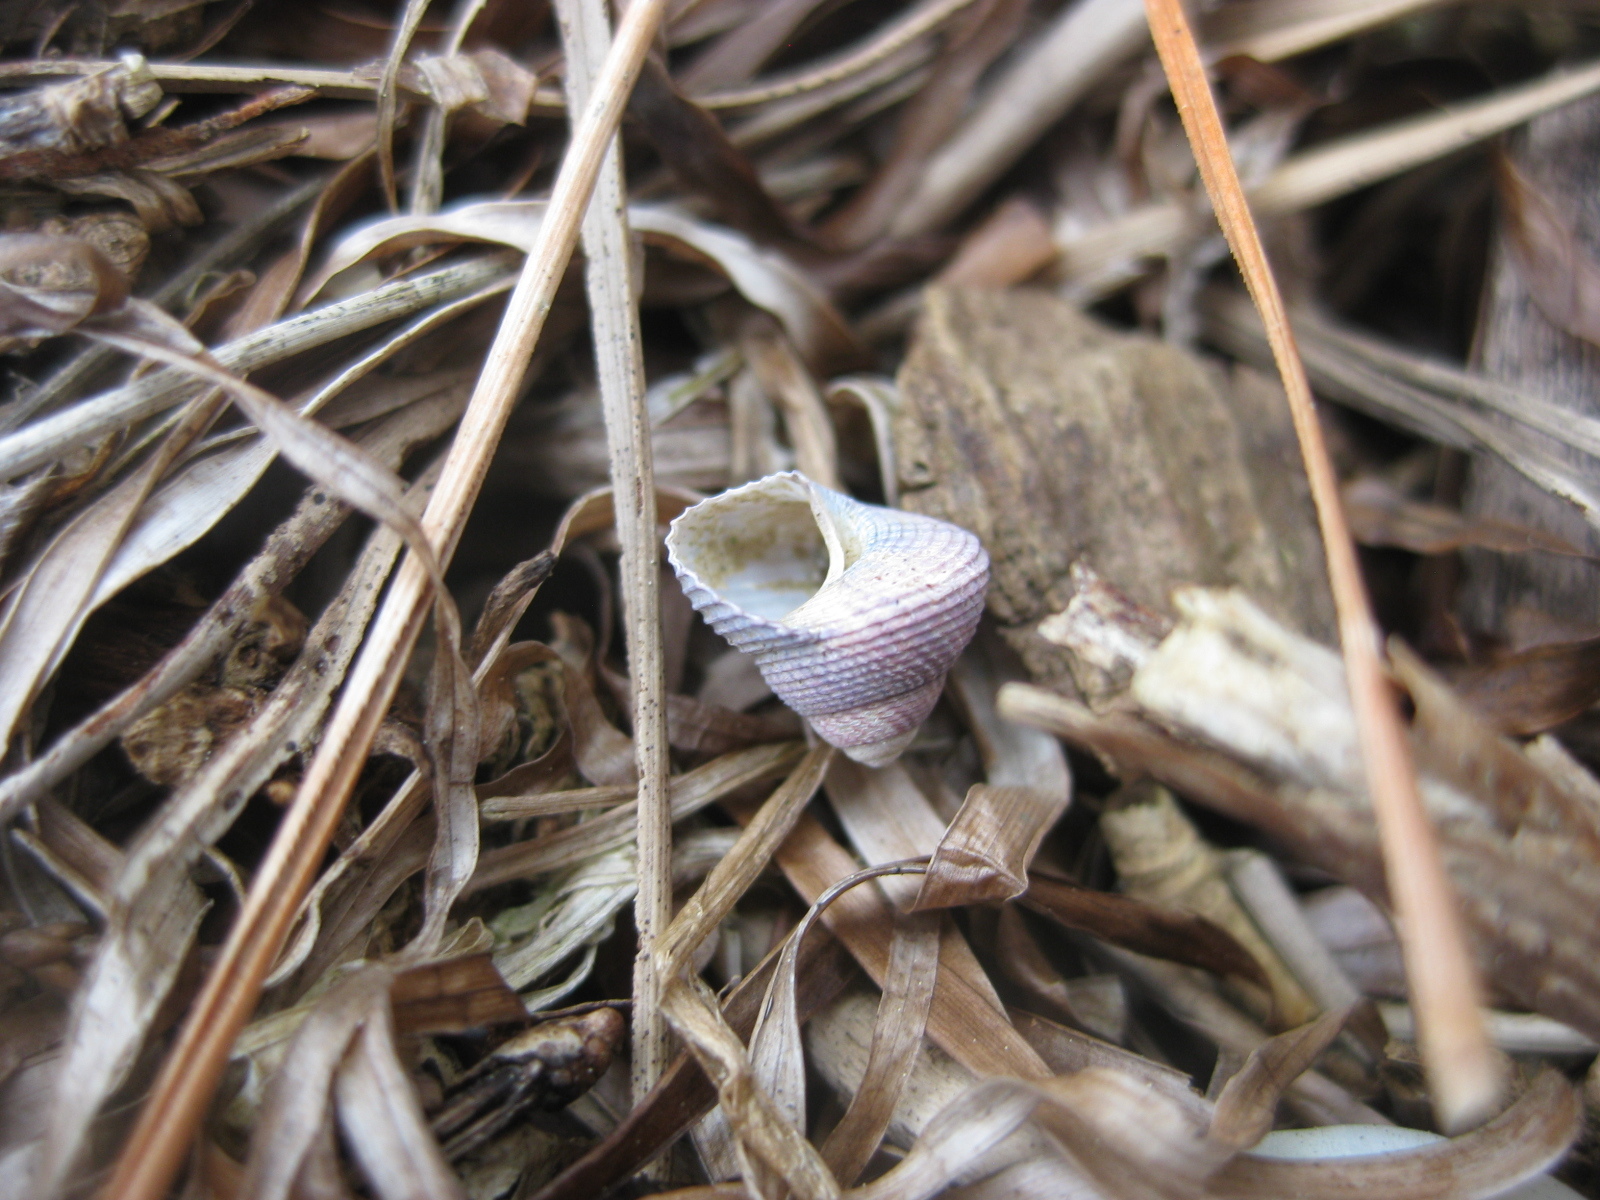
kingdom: Animalia
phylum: Mollusca
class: Gastropoda
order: Trochida
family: Trochidae
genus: Micrelenchus
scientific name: Micrelenchus huttonii
